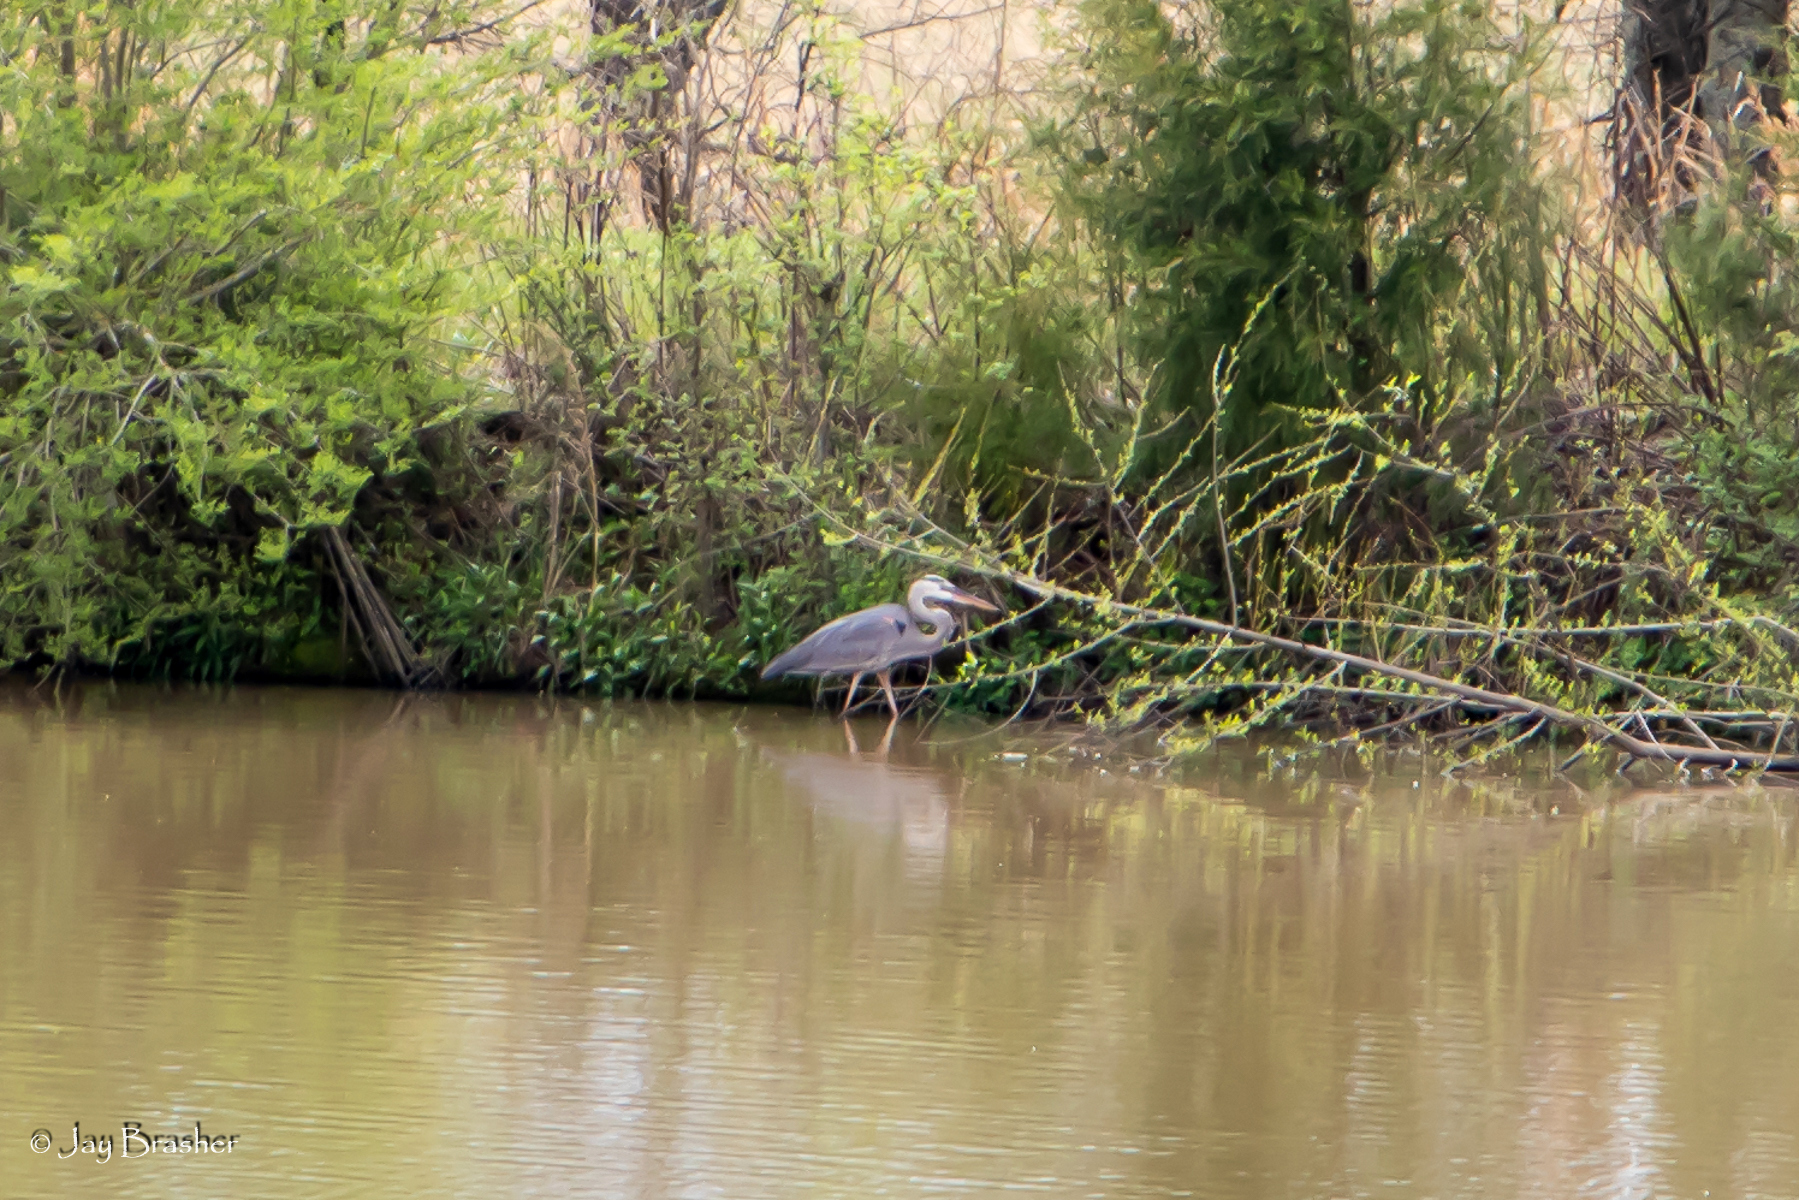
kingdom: Animalia
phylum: Chordata
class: Aves
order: Pelecaniformes
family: Ardeidae
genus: Ardea
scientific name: Ardea herodias
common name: Great blue heron
